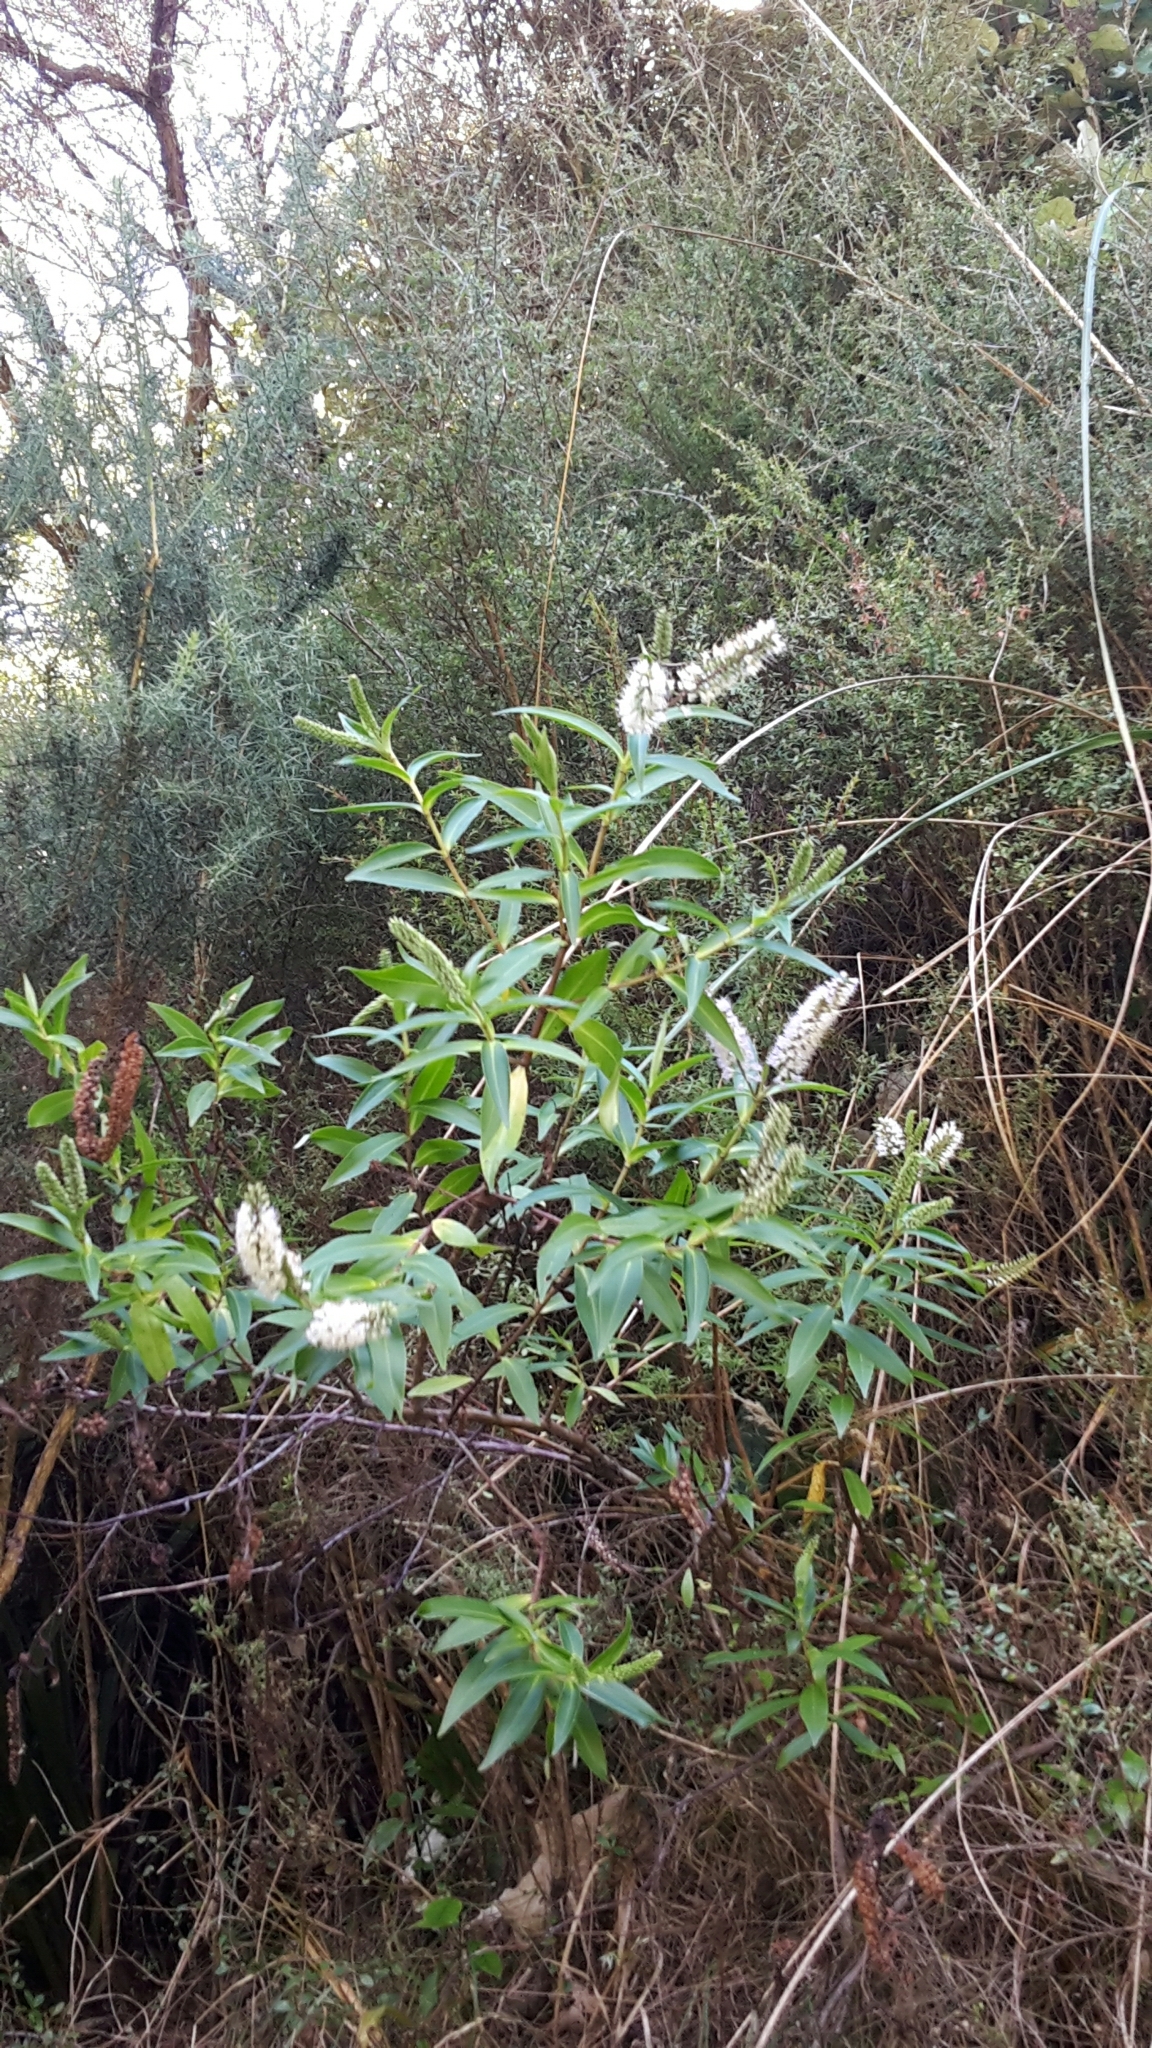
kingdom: Plantae
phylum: Tracheophyta
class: Magnoliopsida
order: Lamiales
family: Plantaginaceae
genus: Veronica
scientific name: Veronica stricta
